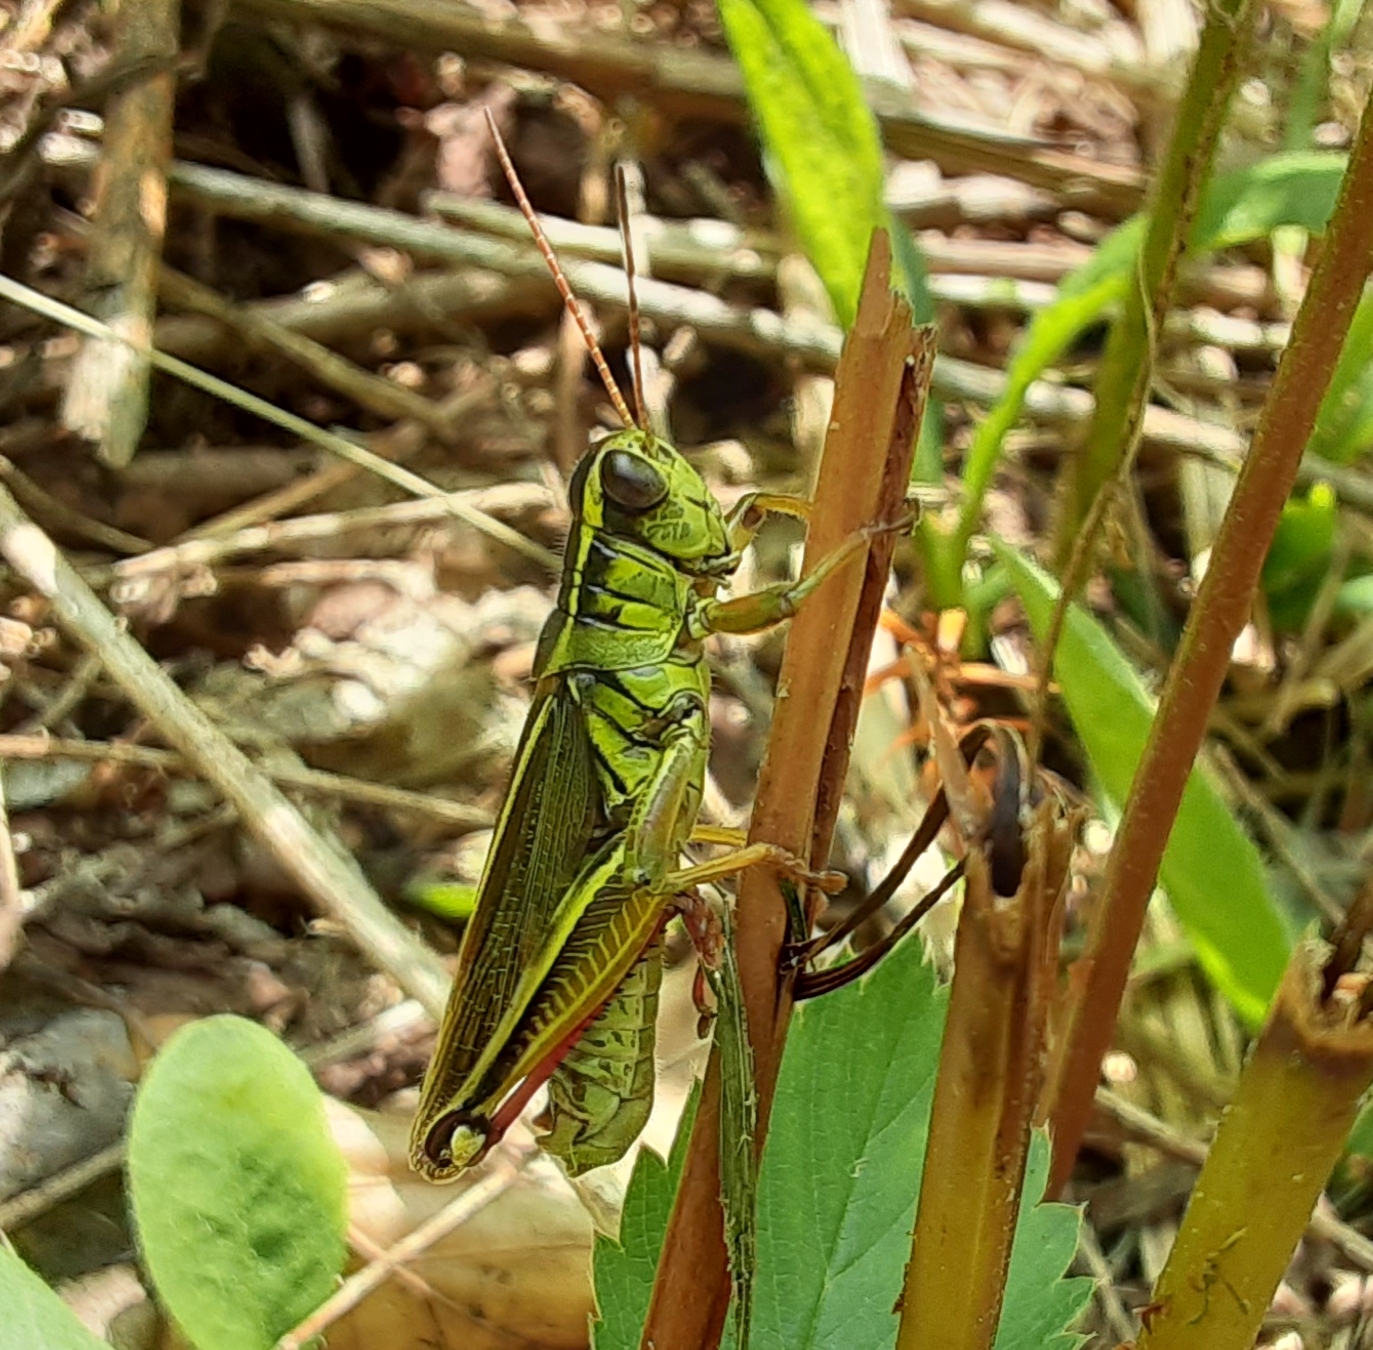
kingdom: Animalia
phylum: Arthropoda
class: Insecta
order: Orthoptera
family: Acrididae
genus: Melanoplus
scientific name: Melanoplus bivittatus
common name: Two-striped grasshopper
